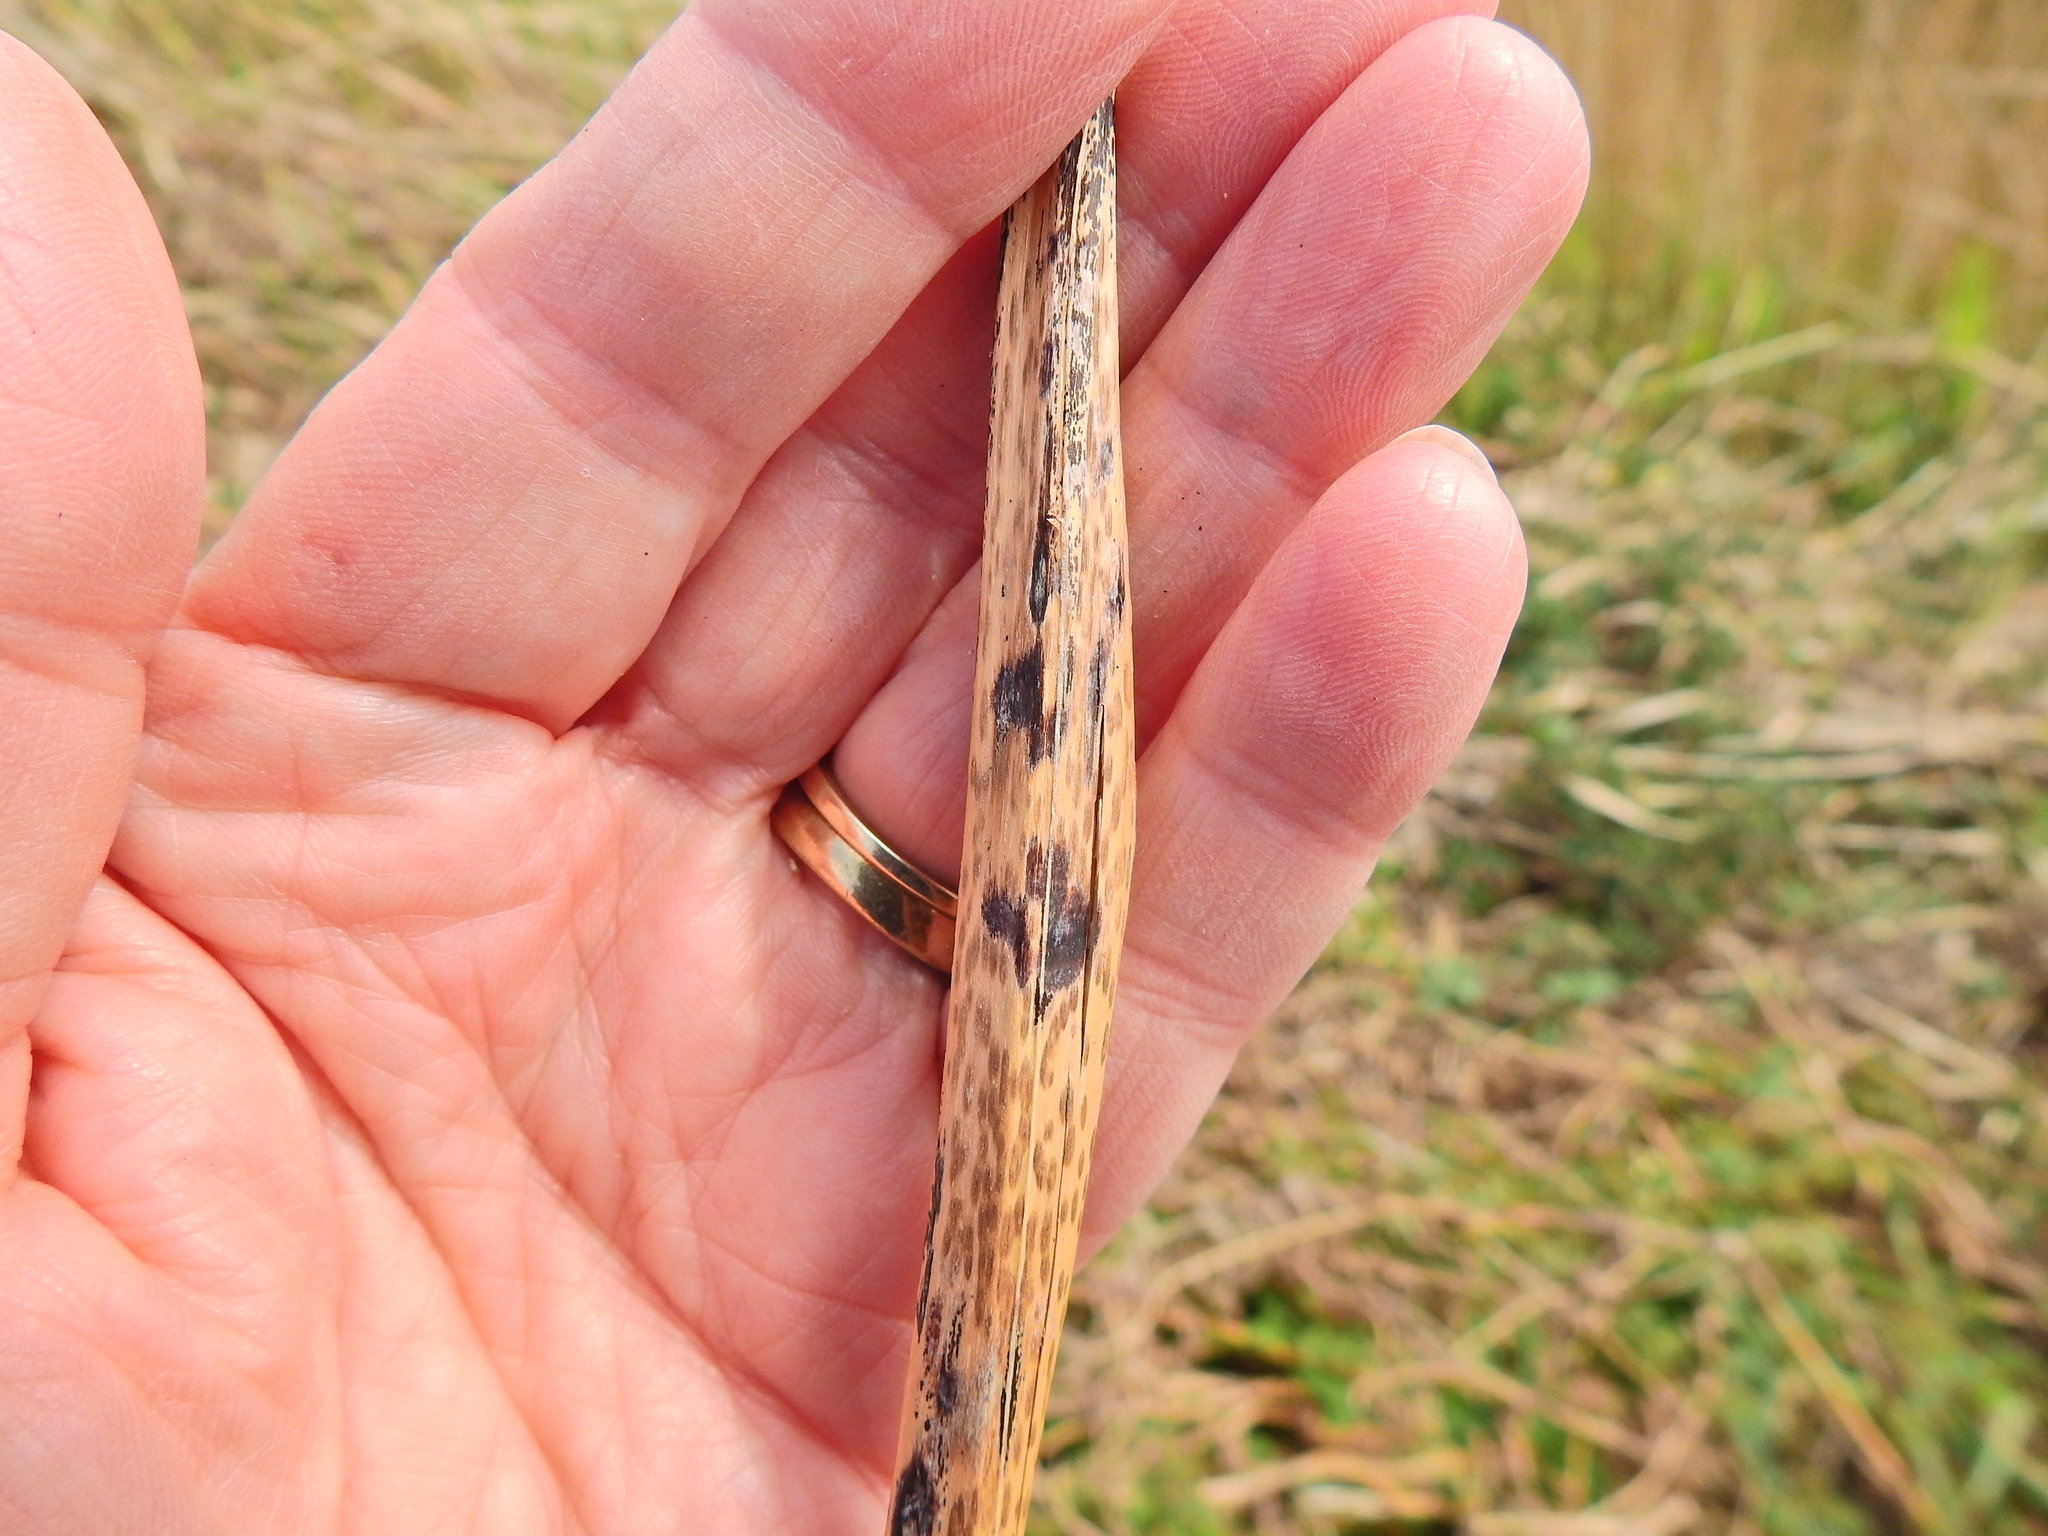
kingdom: Fungi
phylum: Ascomycota
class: Dothideomycetes
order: Pleosporales
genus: Rhopographus
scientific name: Rhopographus filicinus
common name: Bracken map
